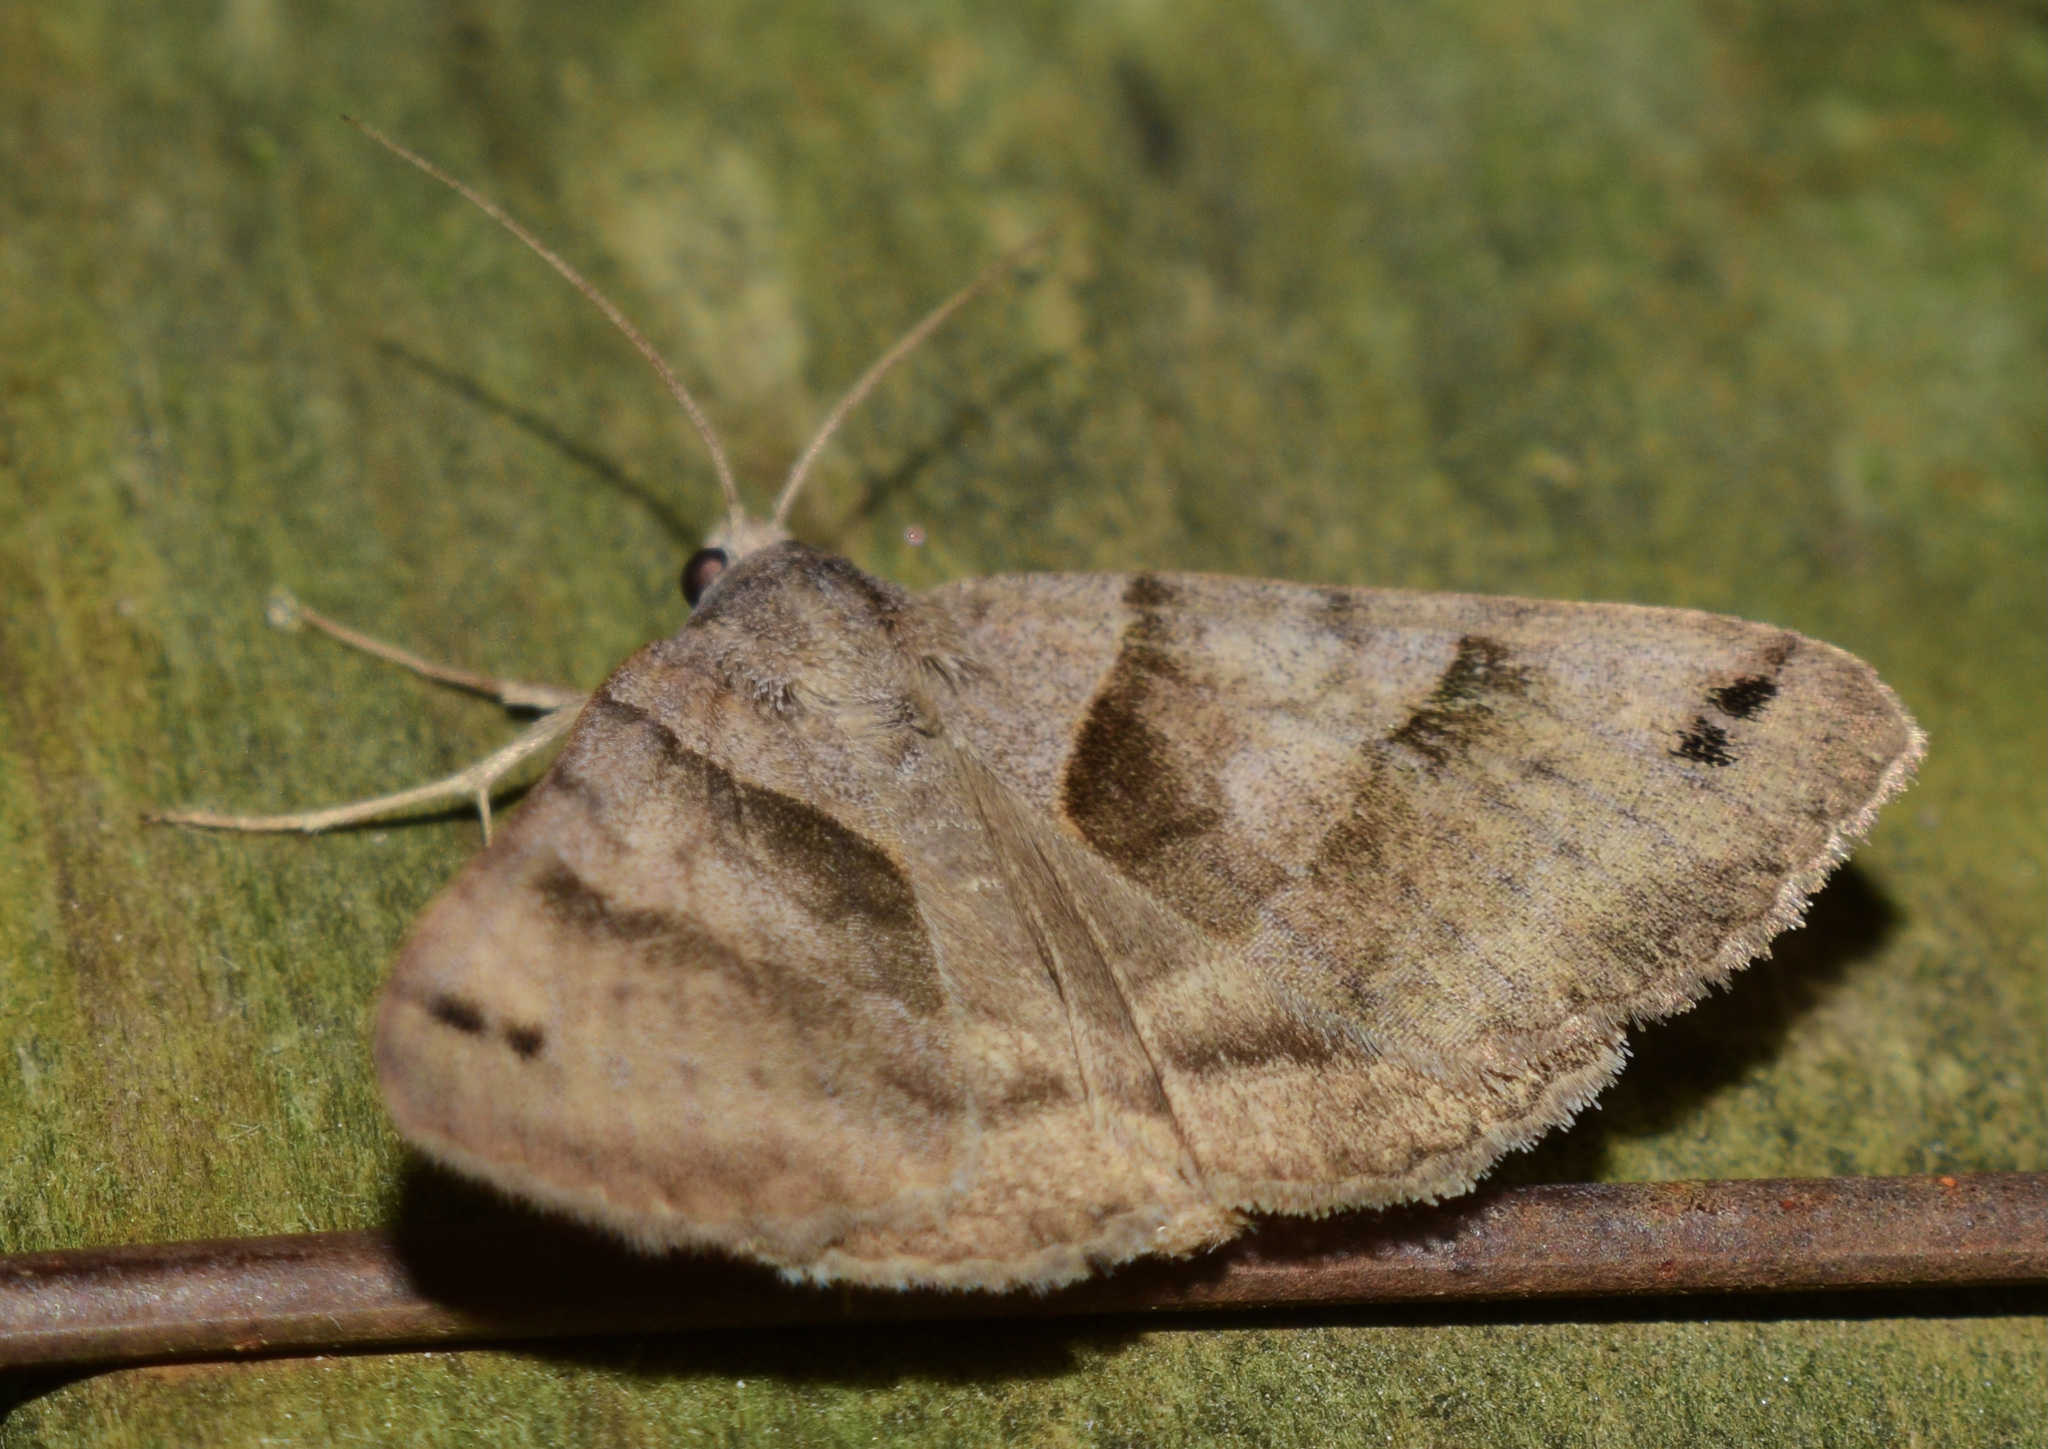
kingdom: Animalia
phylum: Arthropoda
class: Insecta
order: Lepidoptera
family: Erebidae
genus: Caenurgina
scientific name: Caenurgina crassiuscula
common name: Double-barred
